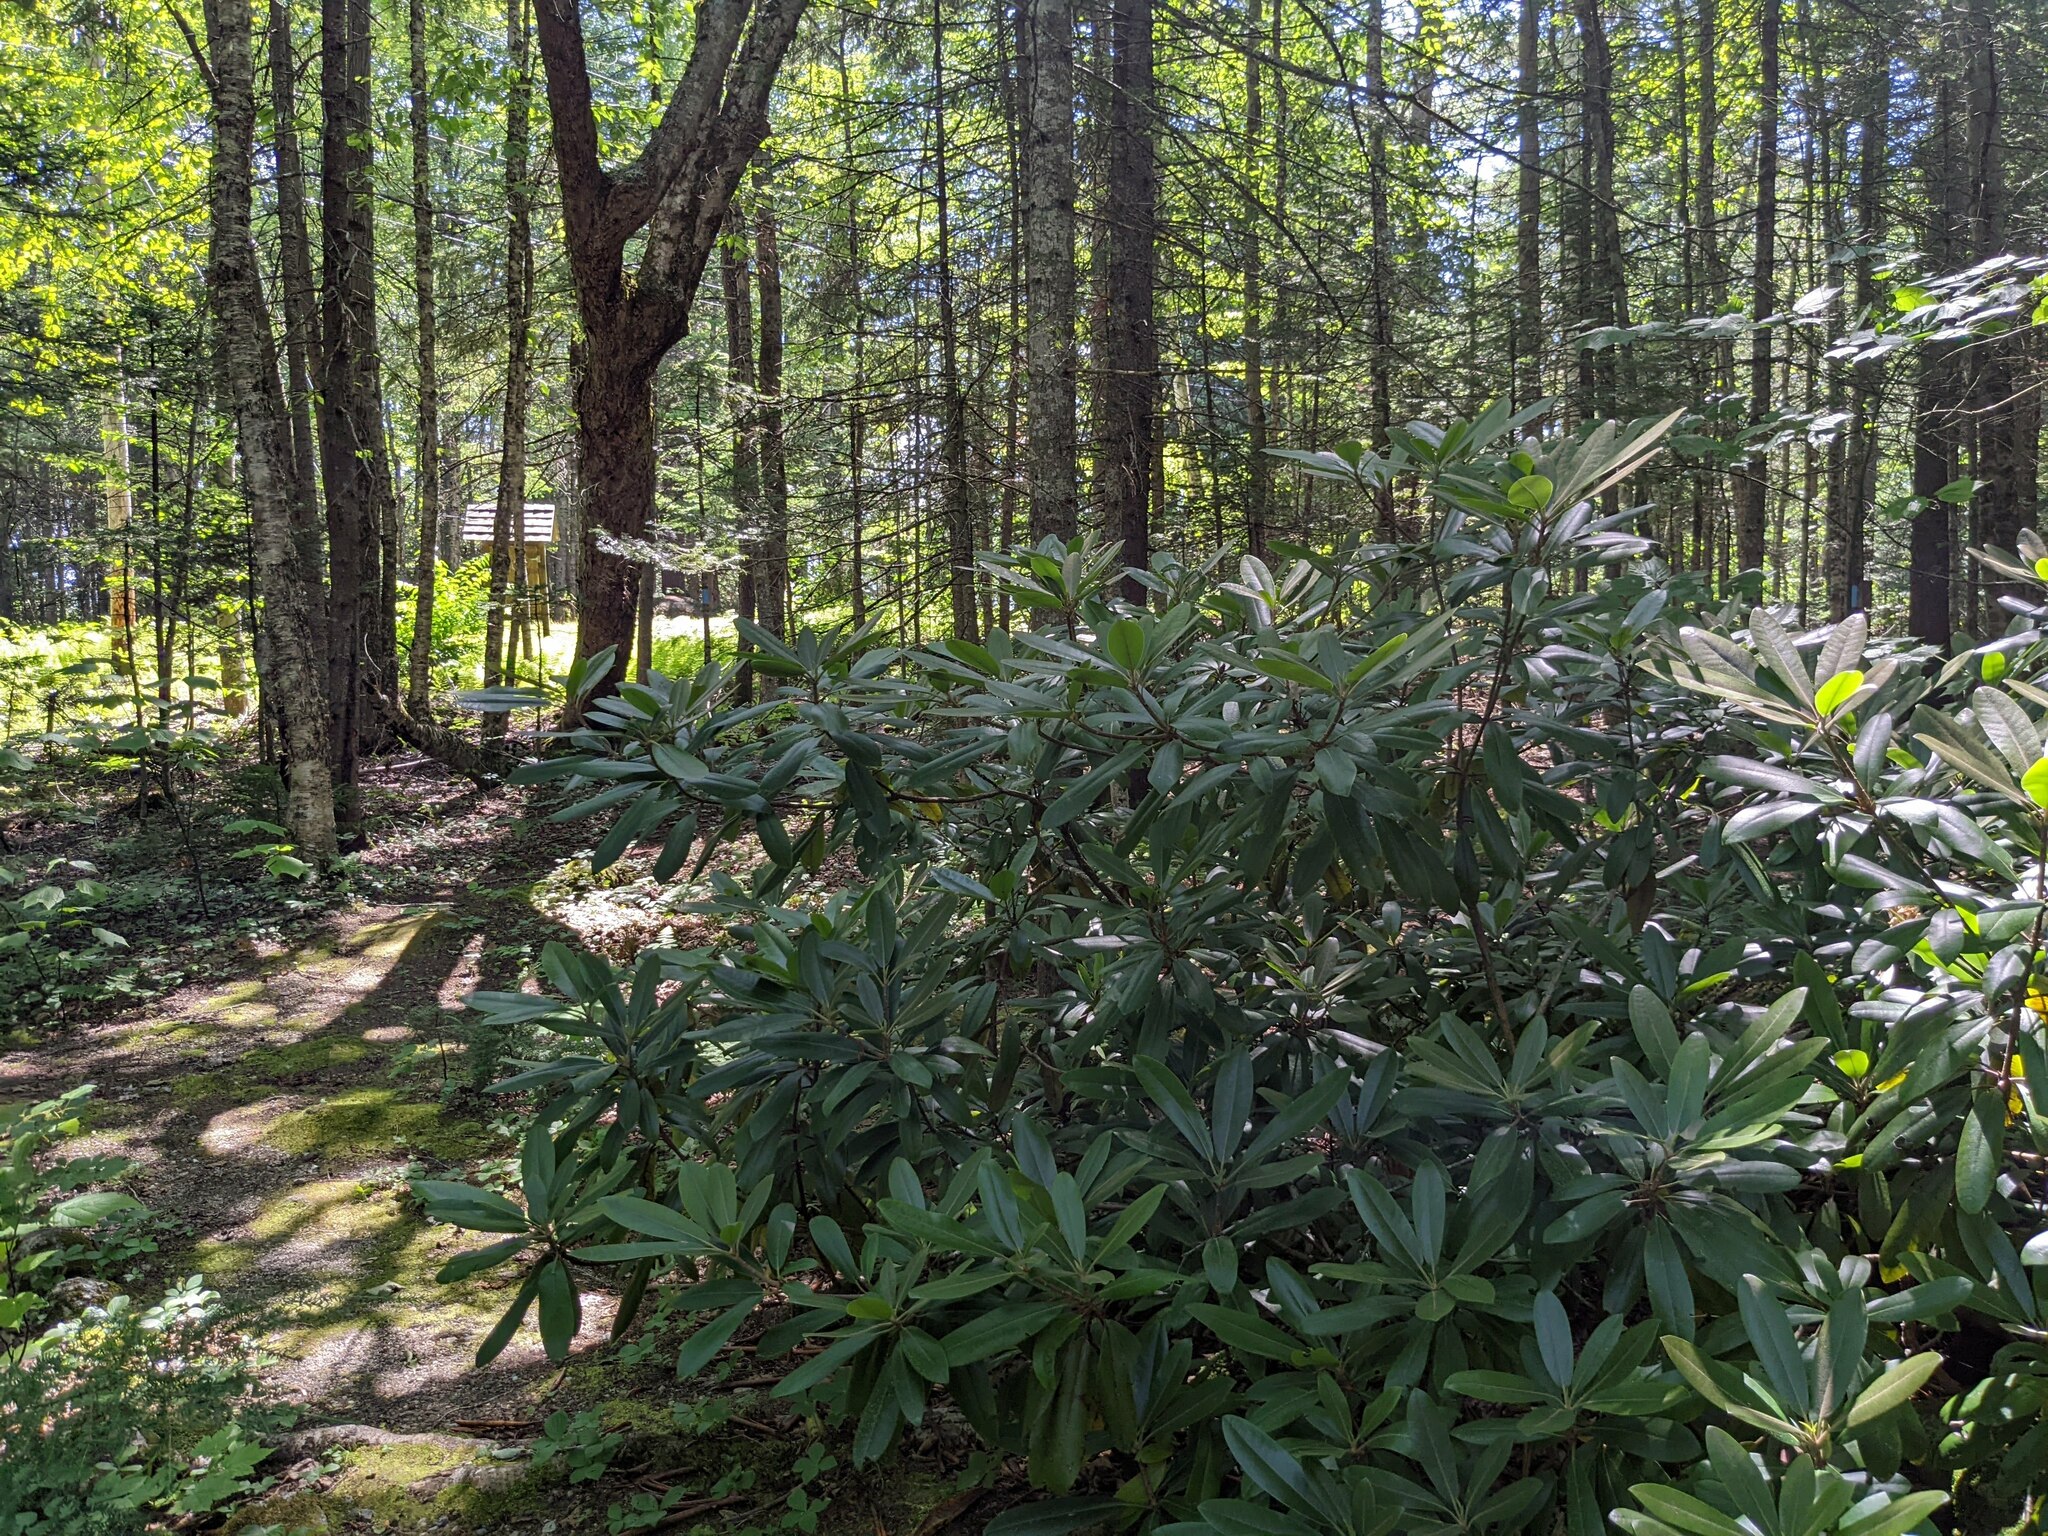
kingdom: Plantae
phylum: Tracheophyta
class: Magnoliopsida
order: Ericales
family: Ericaceae
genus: Rhododendron
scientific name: Rhododendron maximum
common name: Great rhododendron
